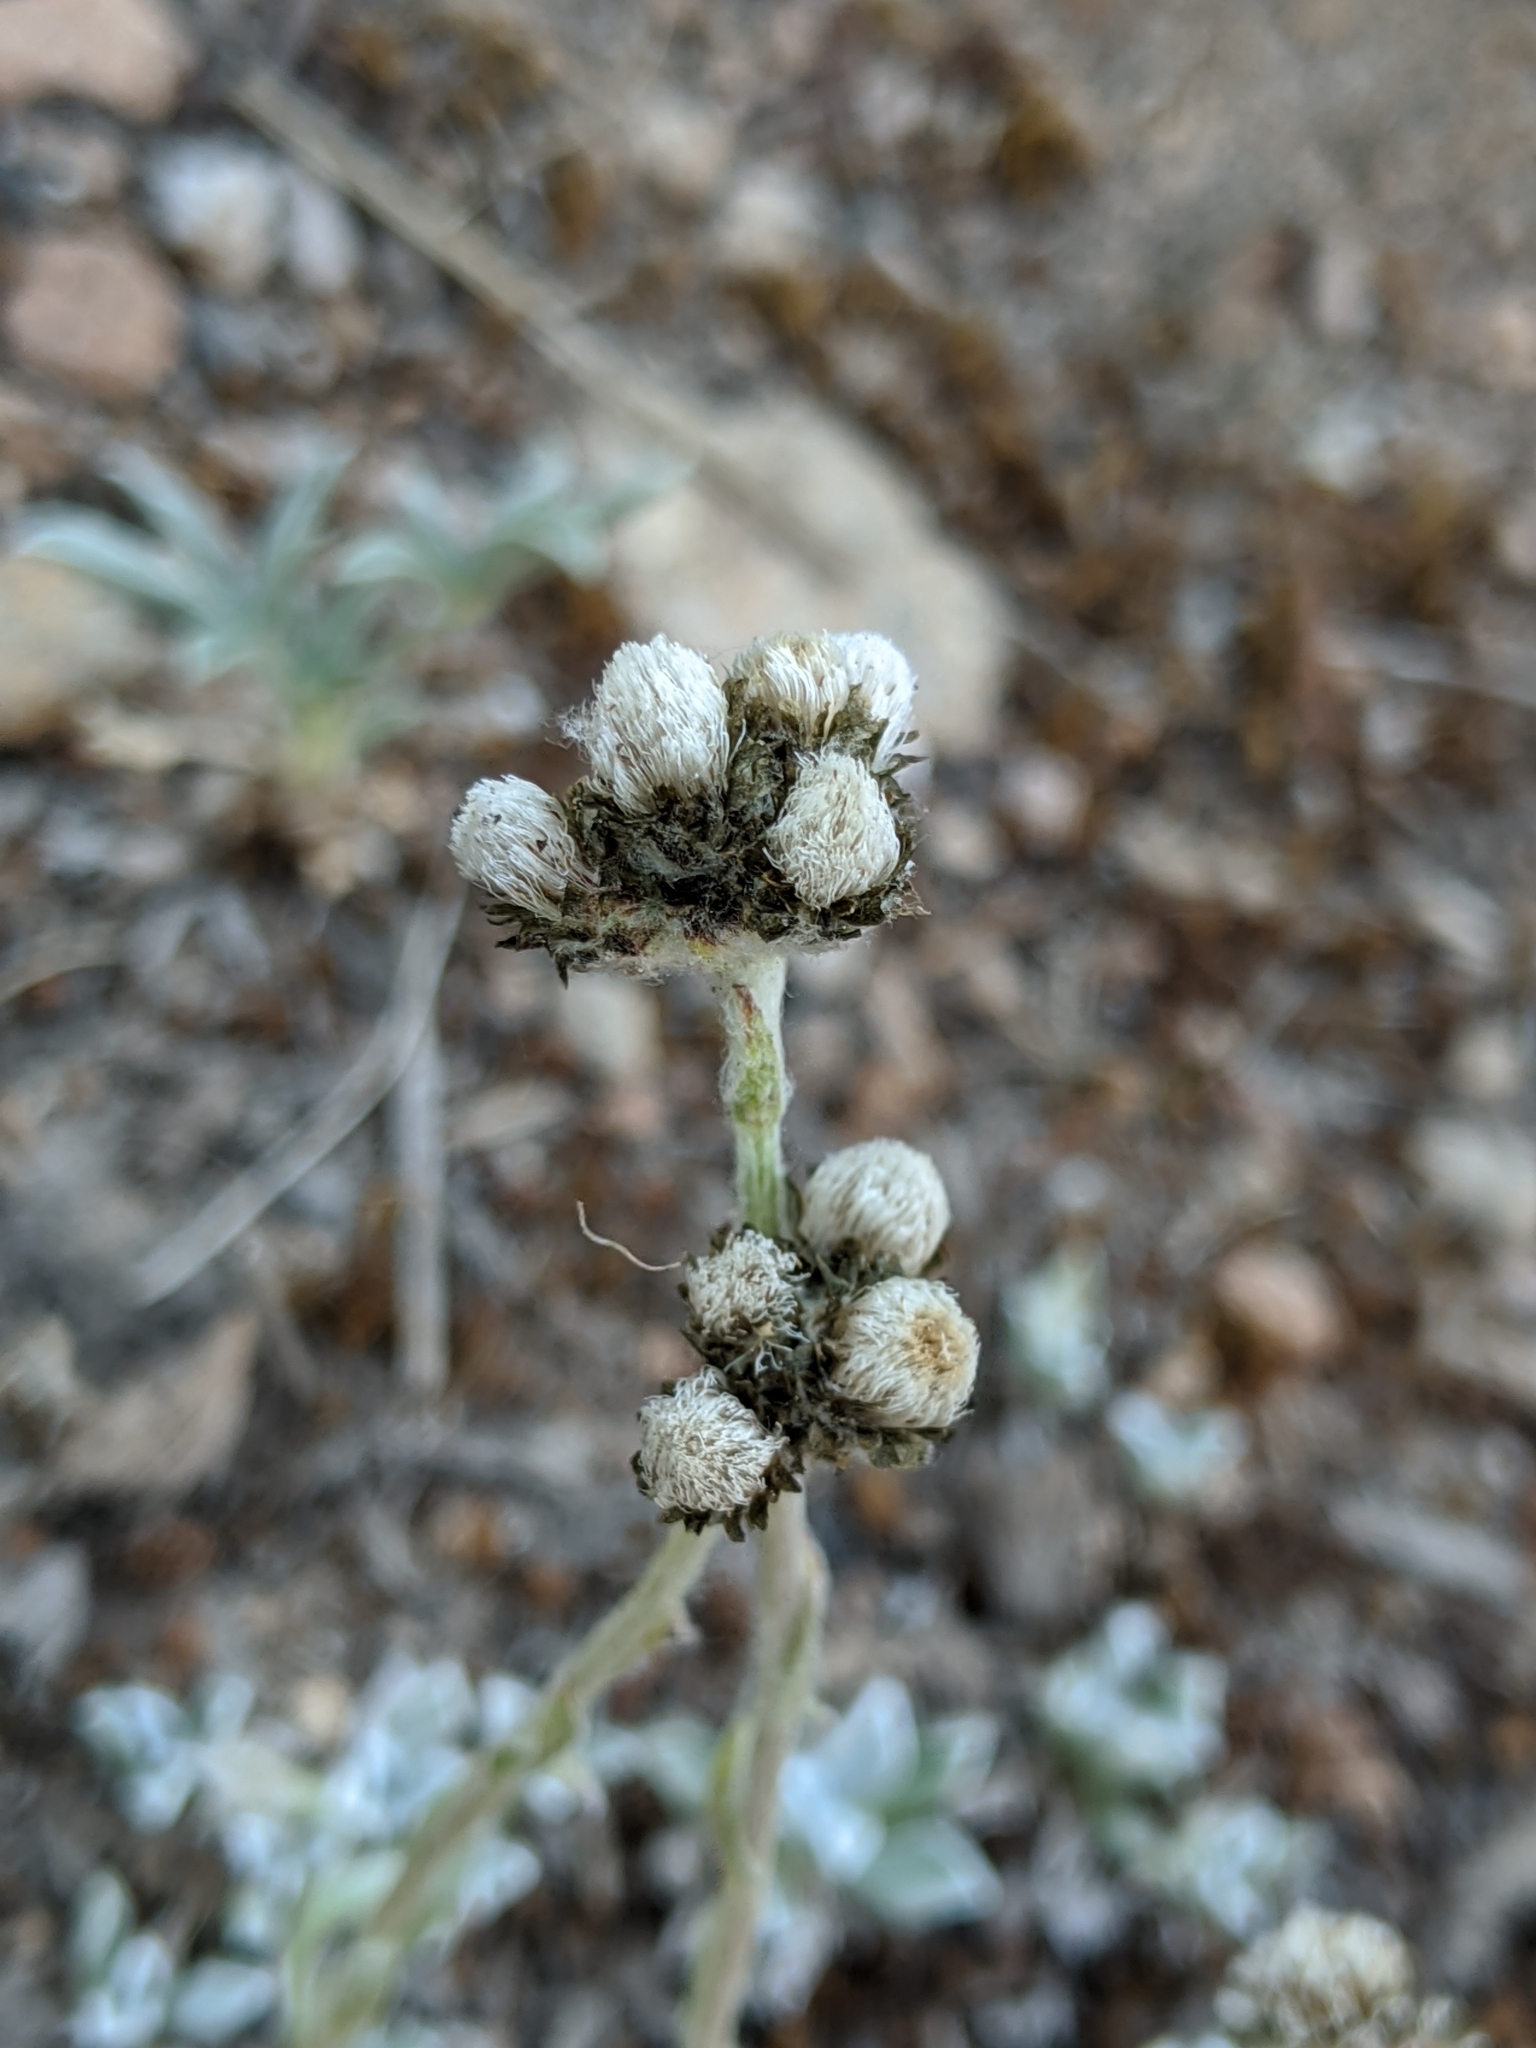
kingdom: Plantae
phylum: Tracheophyta
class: Magnoliopsida
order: Asterales
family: Asteraceae
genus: Antennaria
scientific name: Antennaria media
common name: Rocky mountain pussytoes
